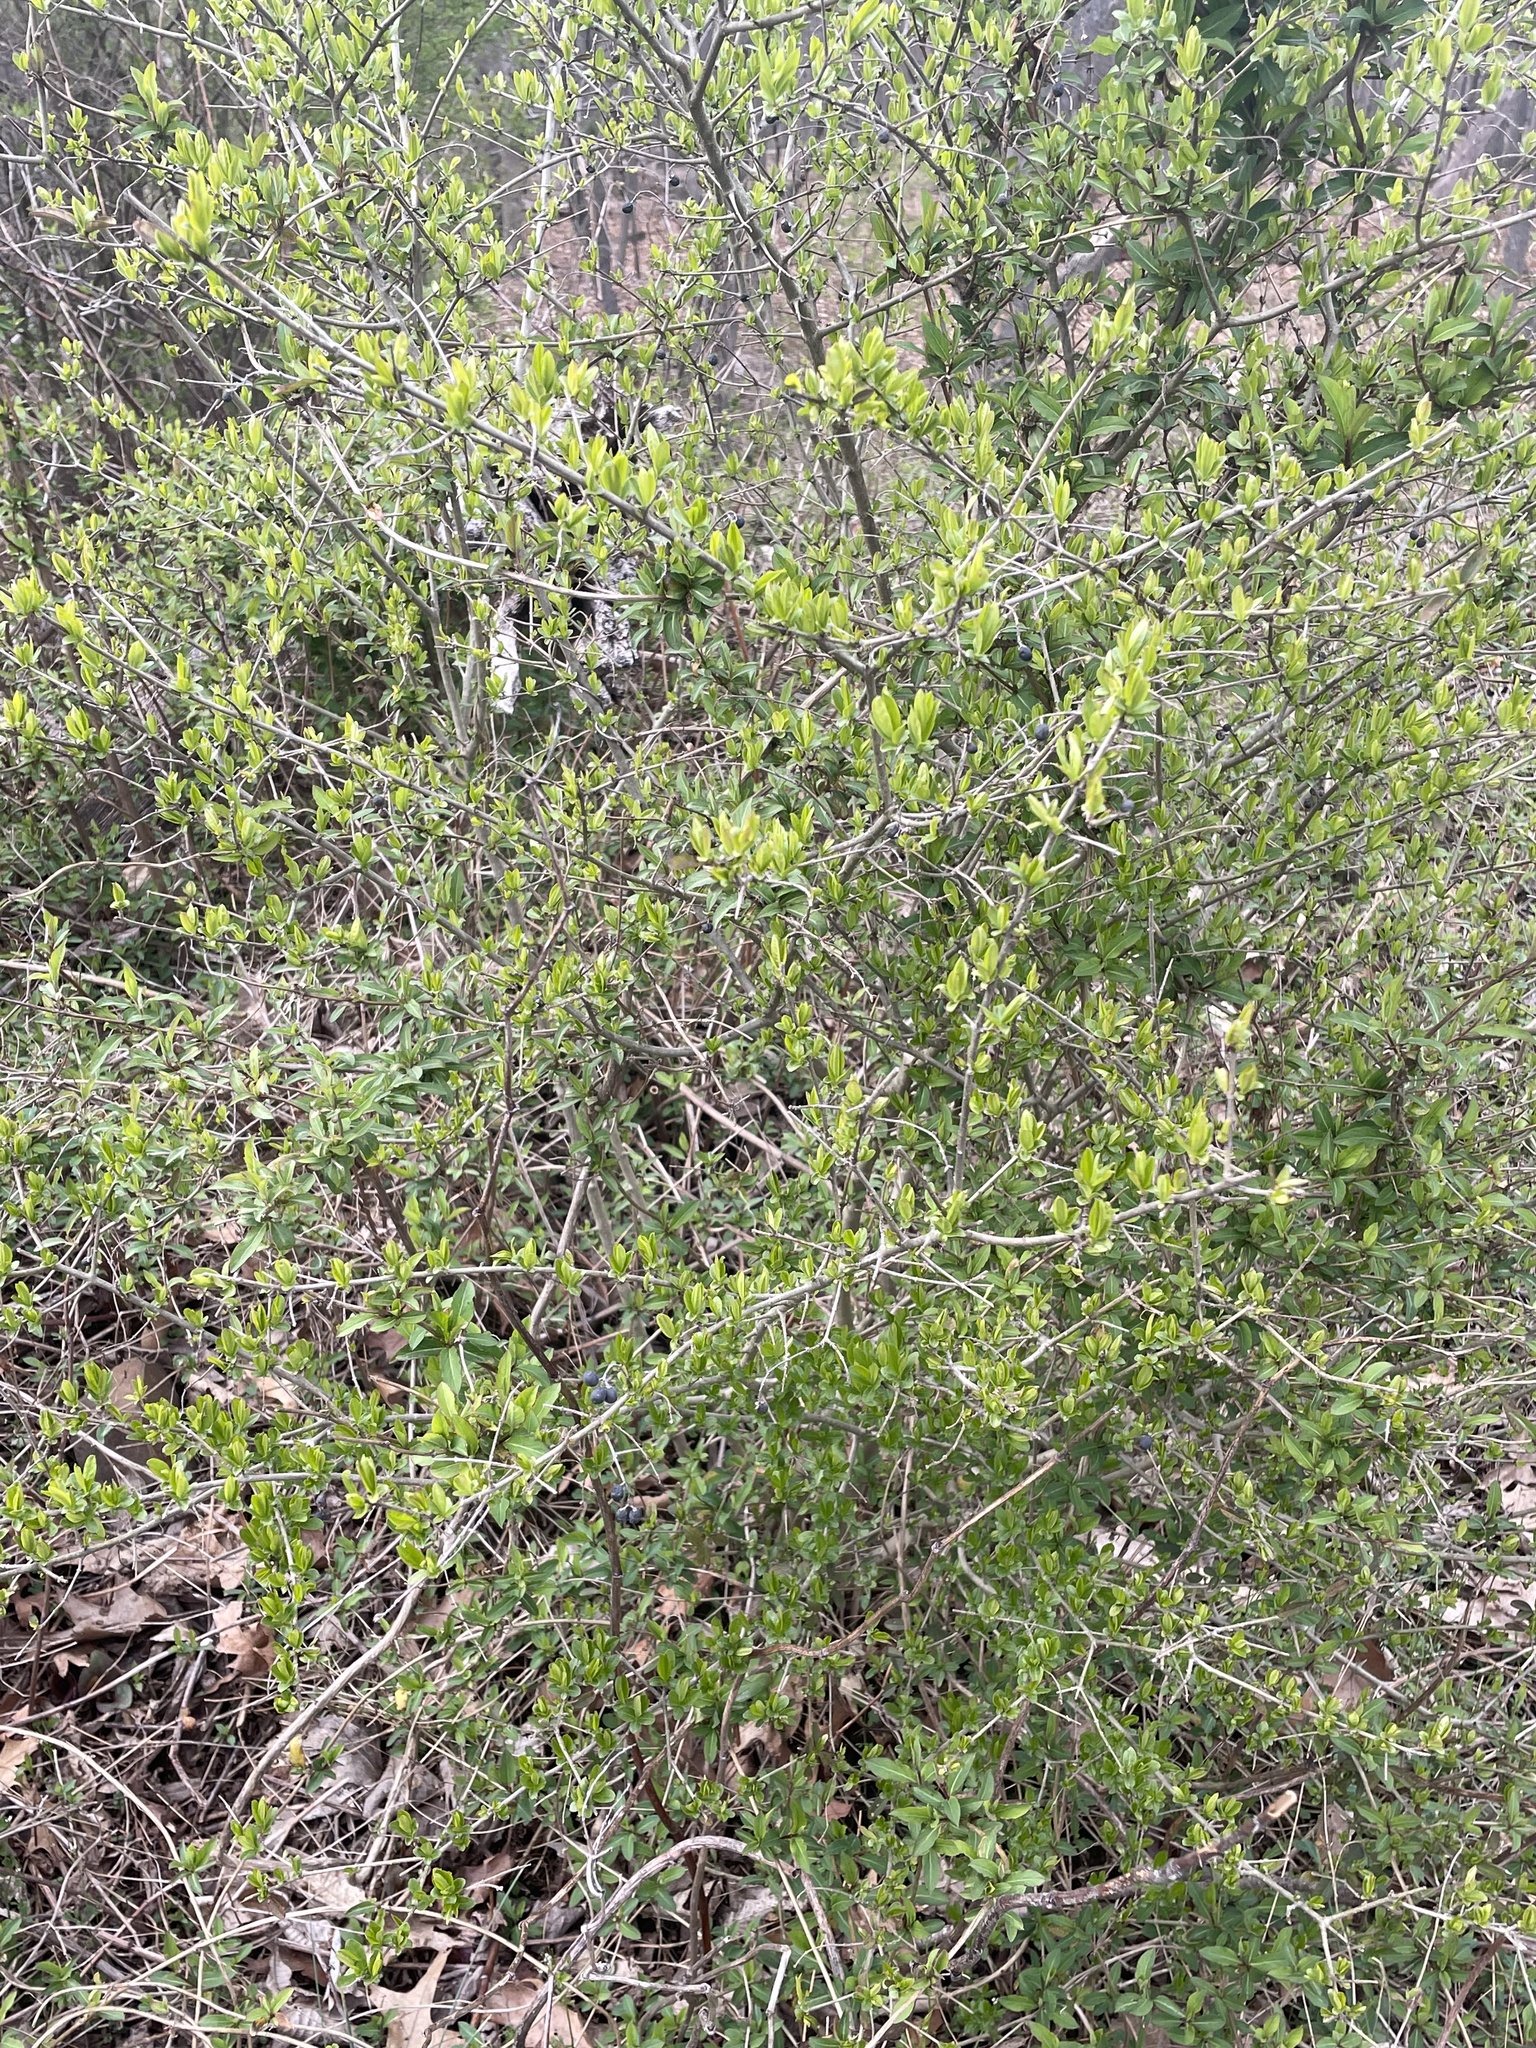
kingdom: Plantae
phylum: Tracheophyta
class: Magnoliopsida
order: Lamiales
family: Oleaceae
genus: Ligustrum
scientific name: Ligustrum obtusifolium
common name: Border privet
